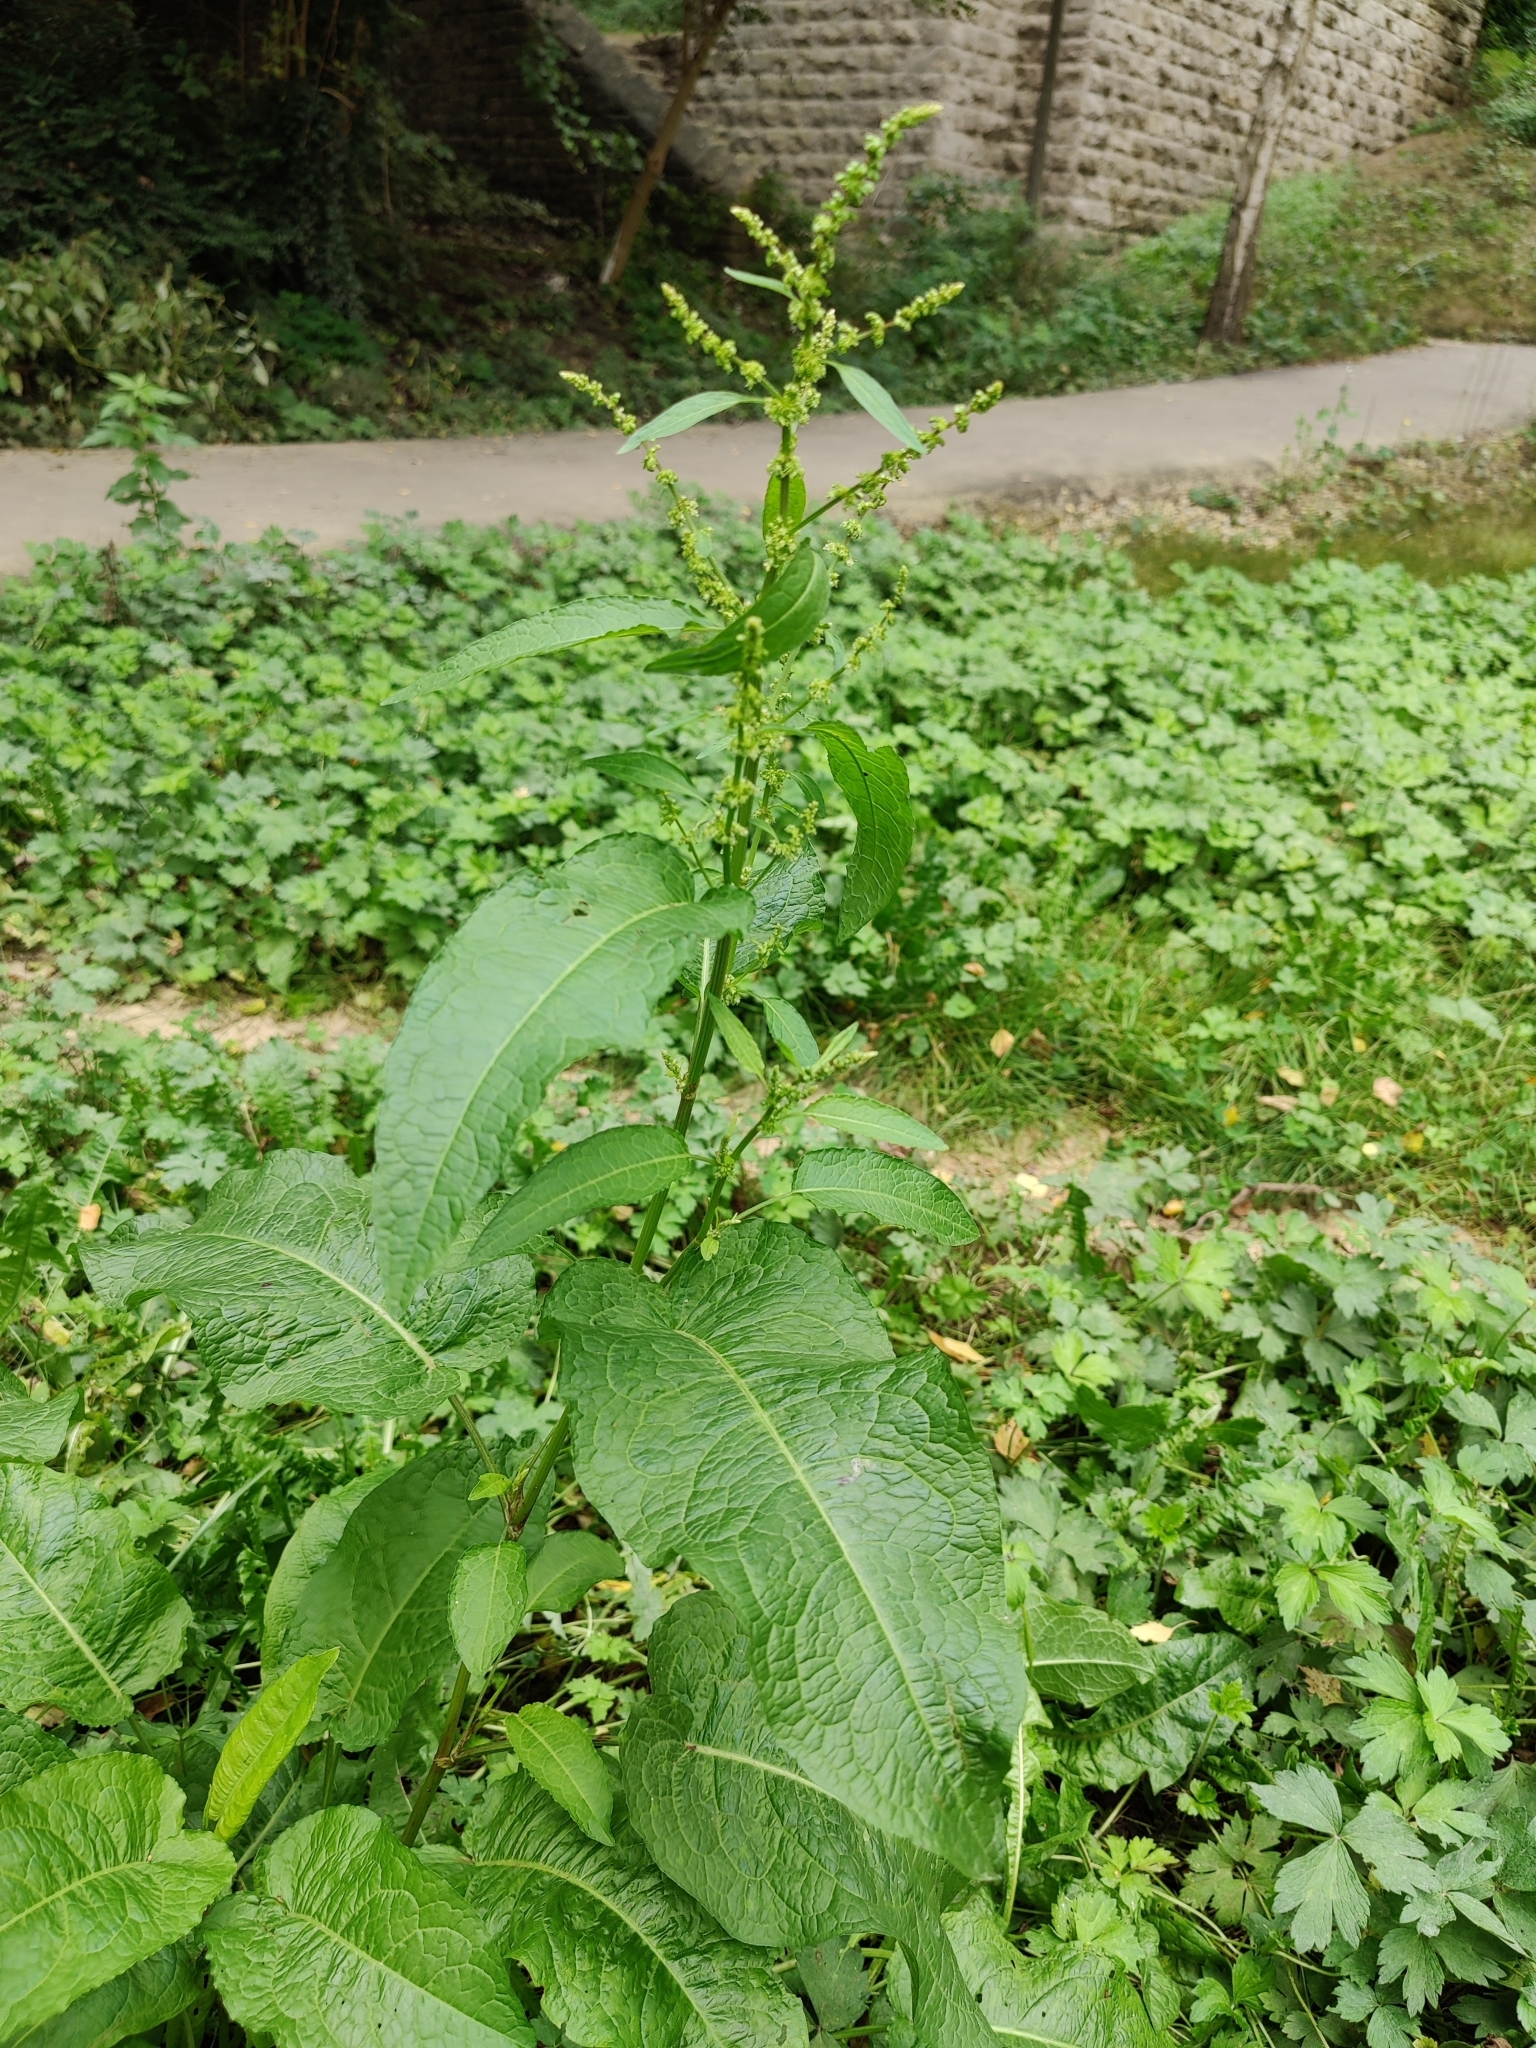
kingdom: Plantae
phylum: Tracheophyta
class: Magnoliopsida
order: Caryophyllales
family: Polygonaceae
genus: Rumex
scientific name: Rumex obtusifolius
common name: Bitter dock
